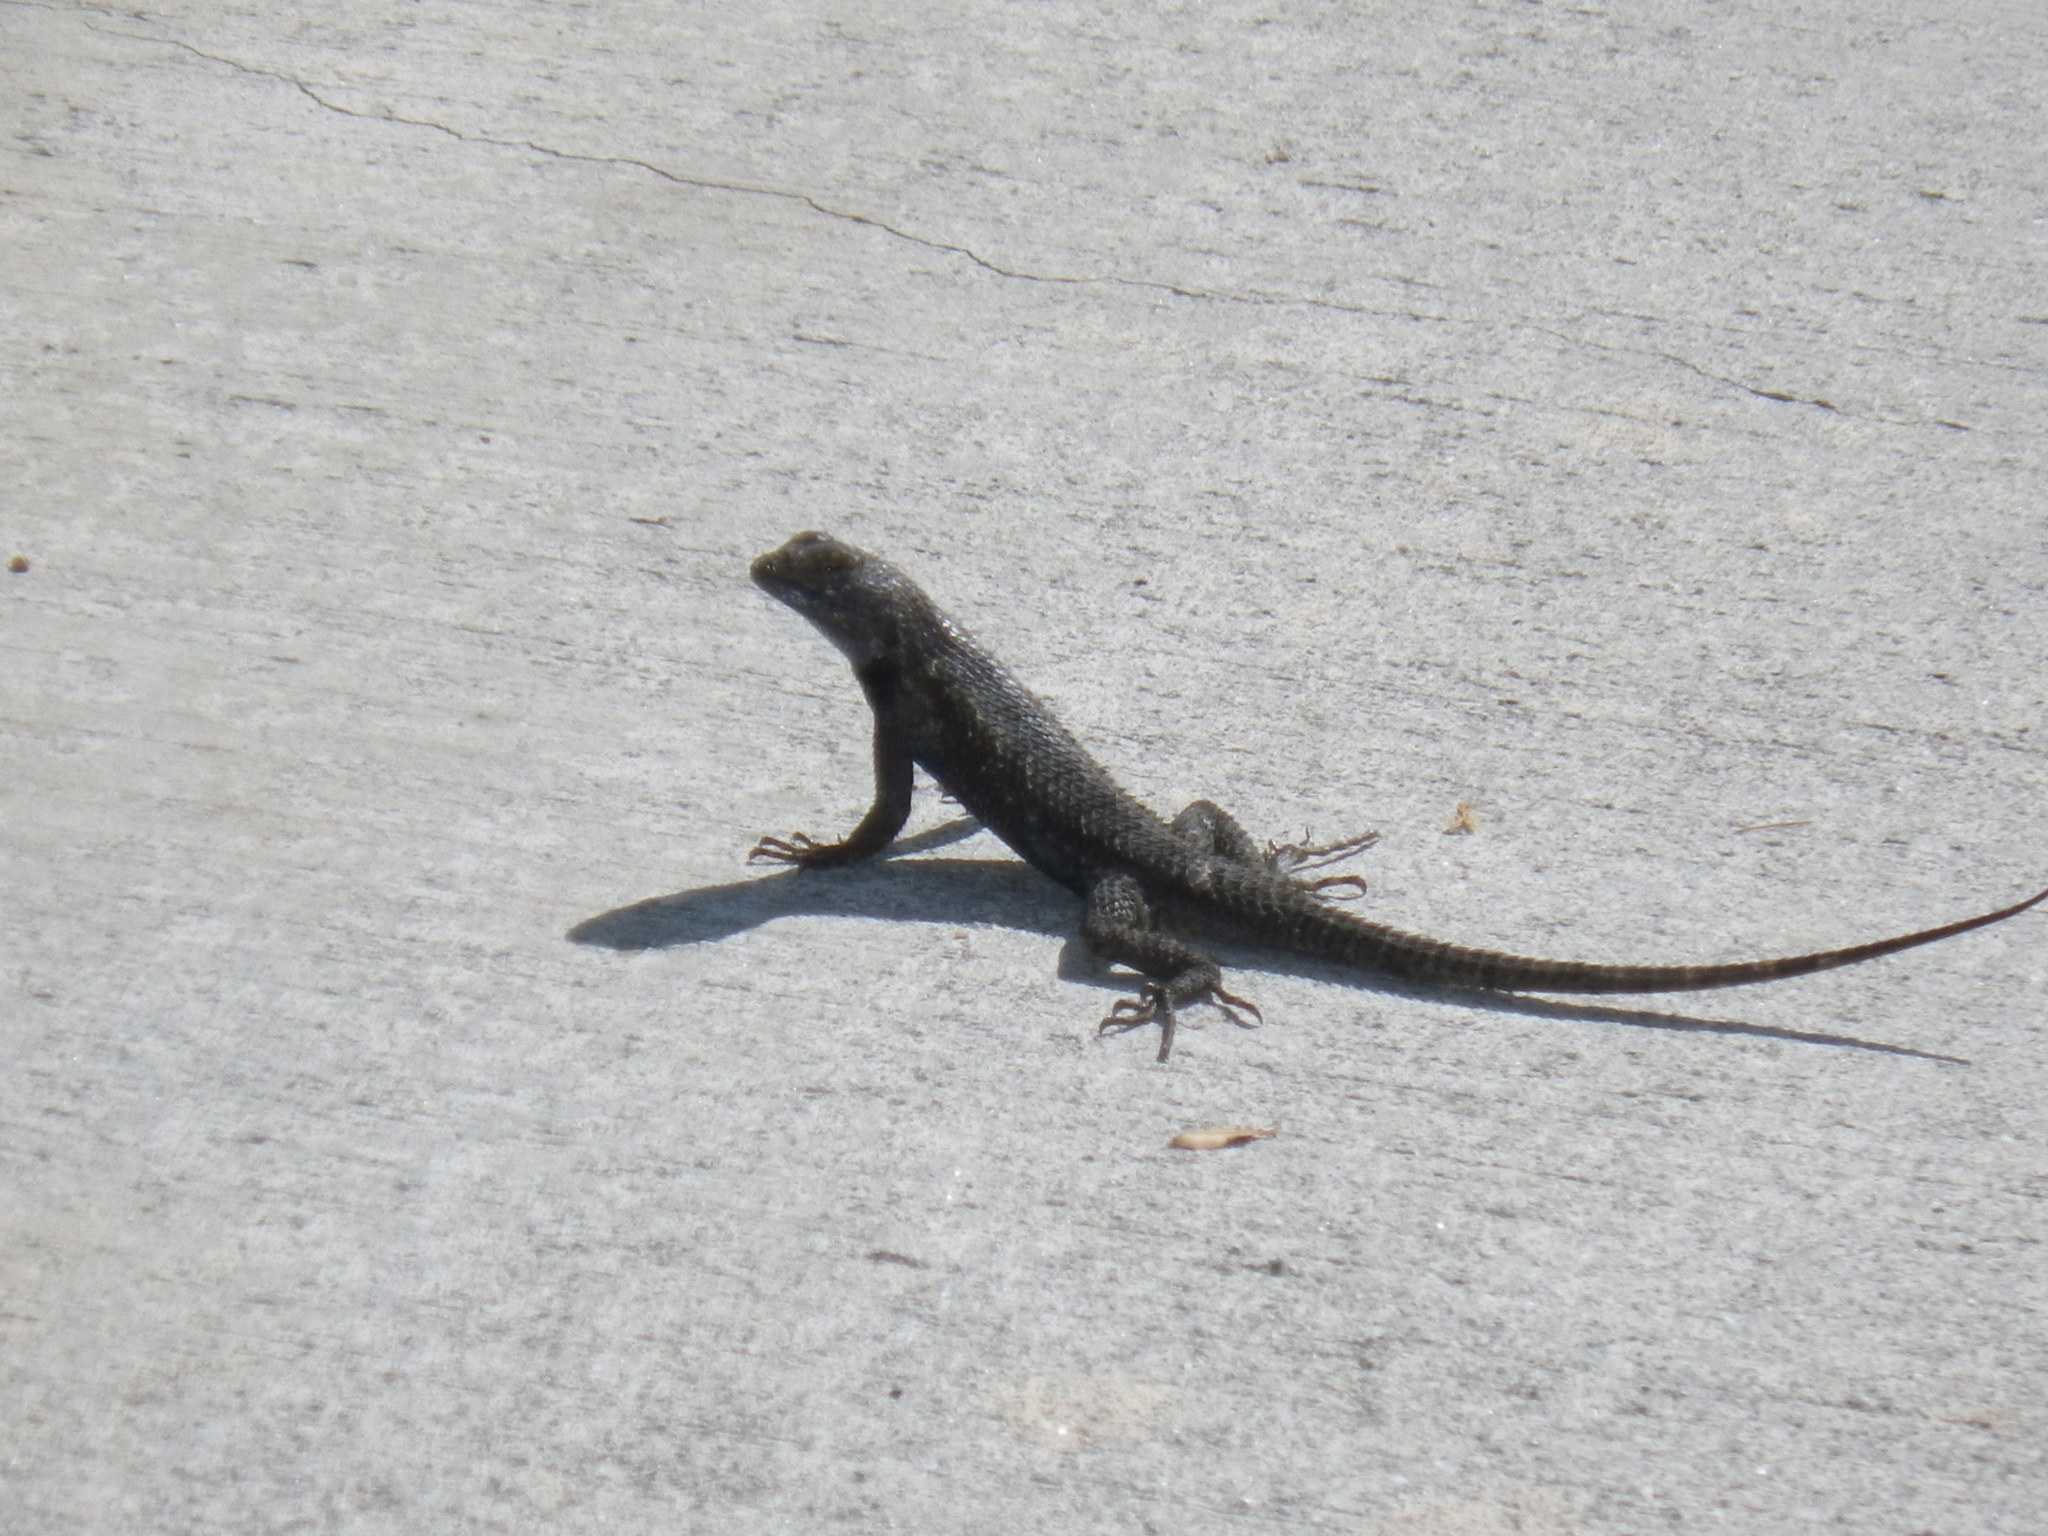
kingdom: Animalia
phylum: Chordata
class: Squamata
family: Phrynosomatidae
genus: Sceloporus
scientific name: Sceloporus occidentalis
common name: Western fence lizard
